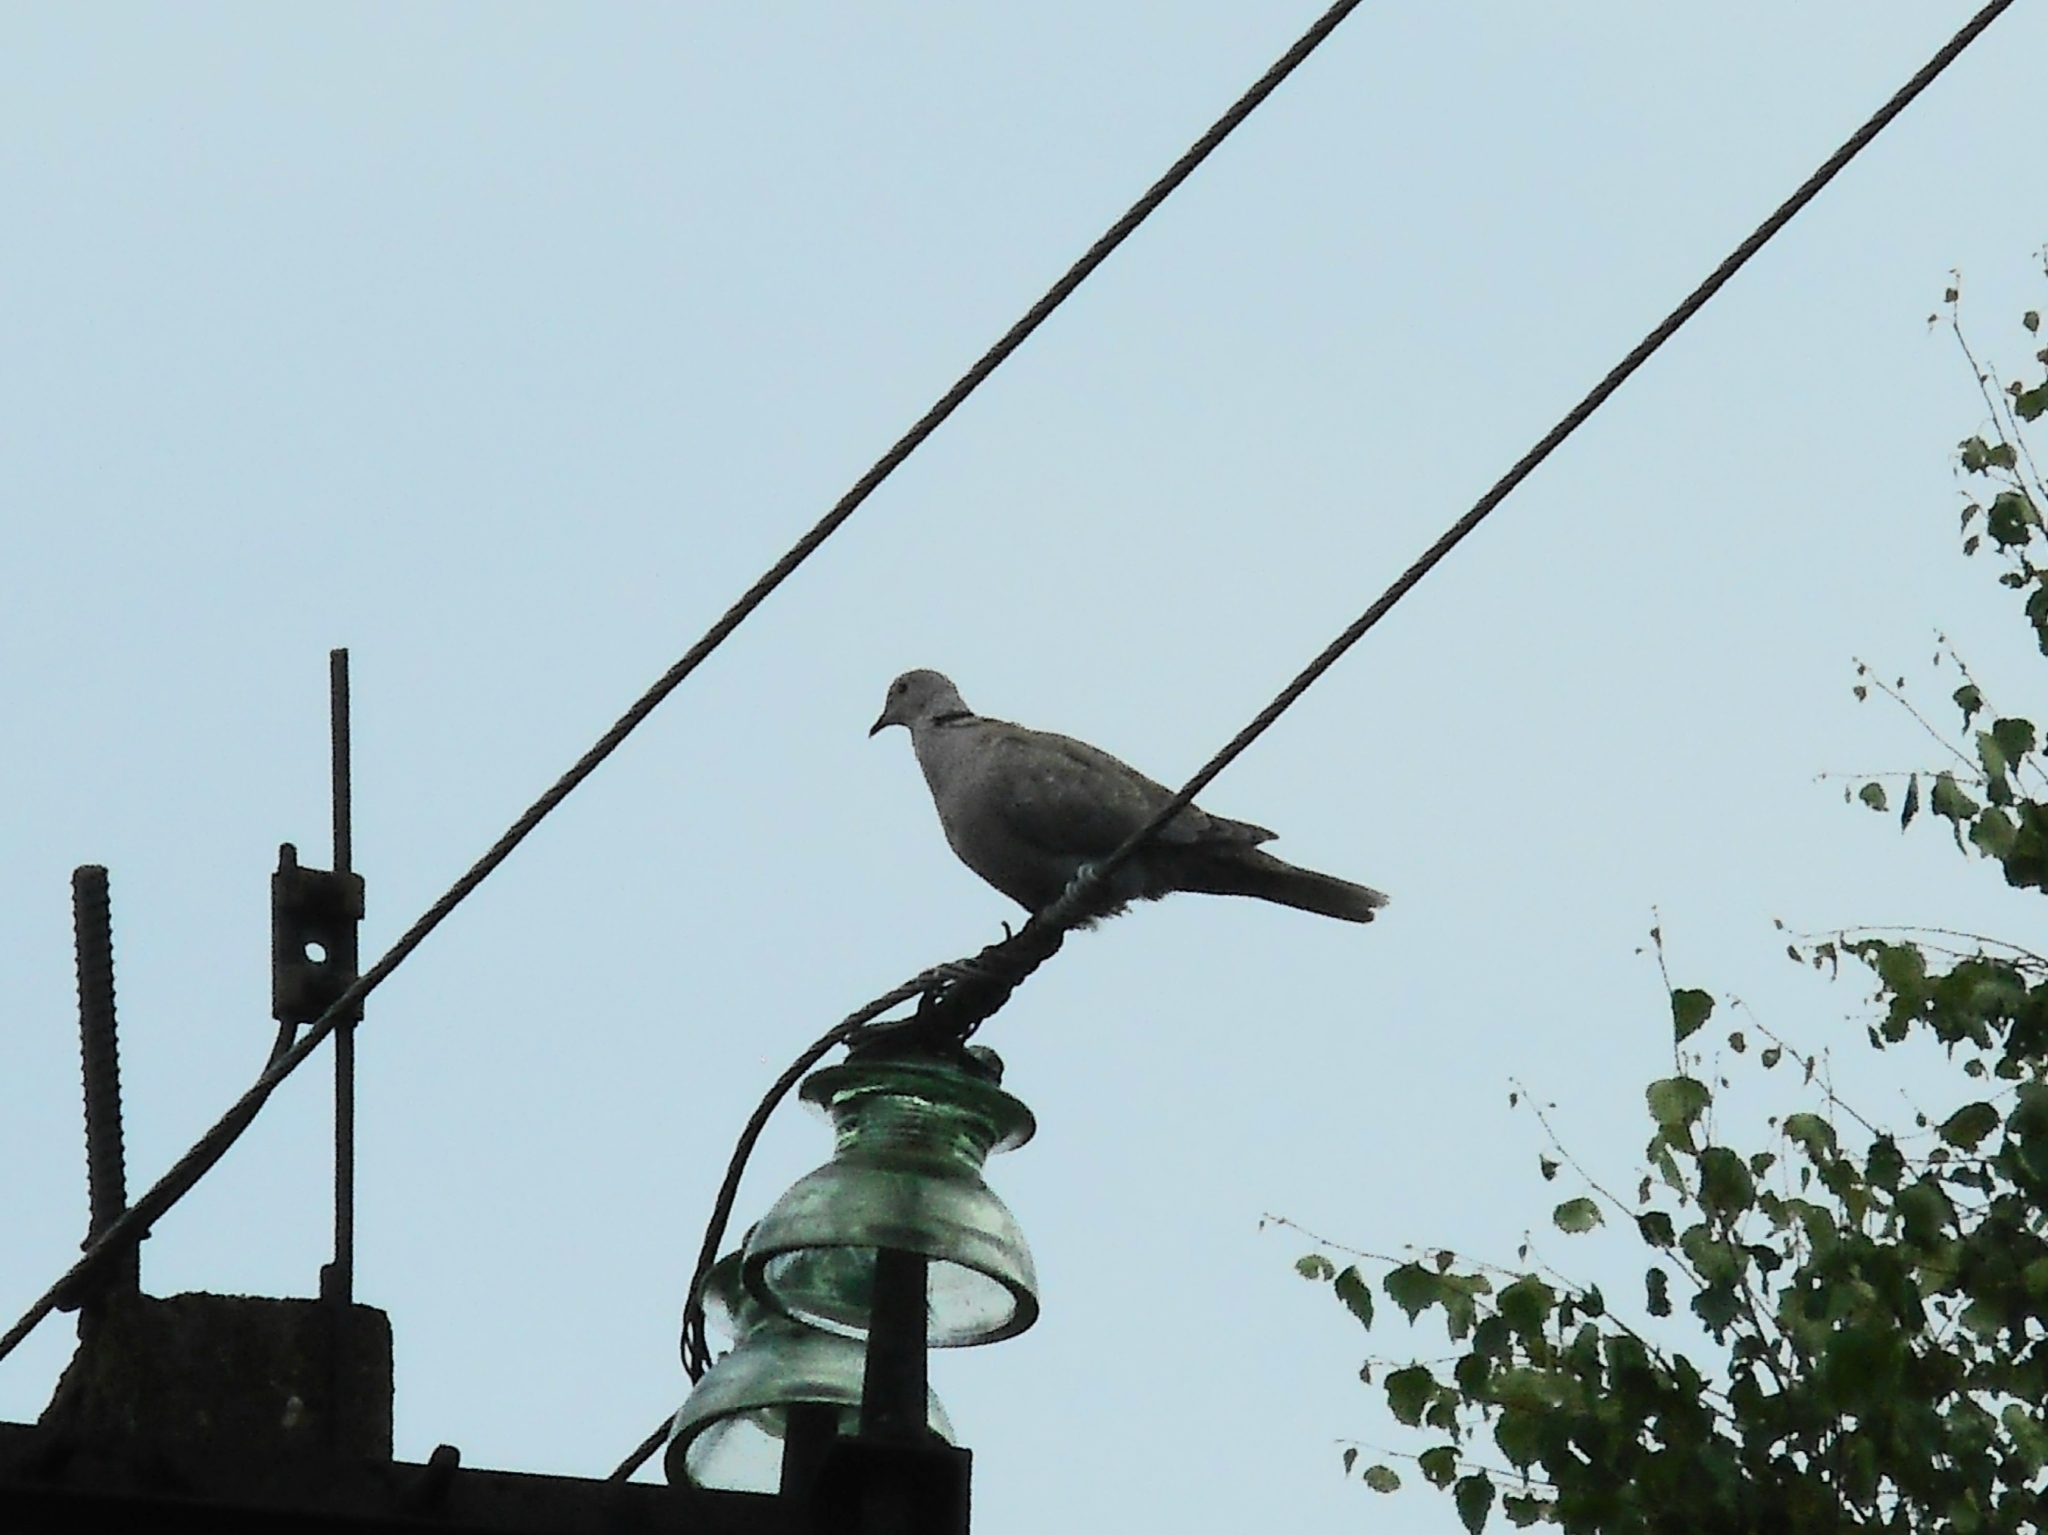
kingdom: Animalia
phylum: Chordata
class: Aves
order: Columbiformes
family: Columbidae
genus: Streptopelia
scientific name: Streptopelia decaocto
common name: Eurasian collared dove
